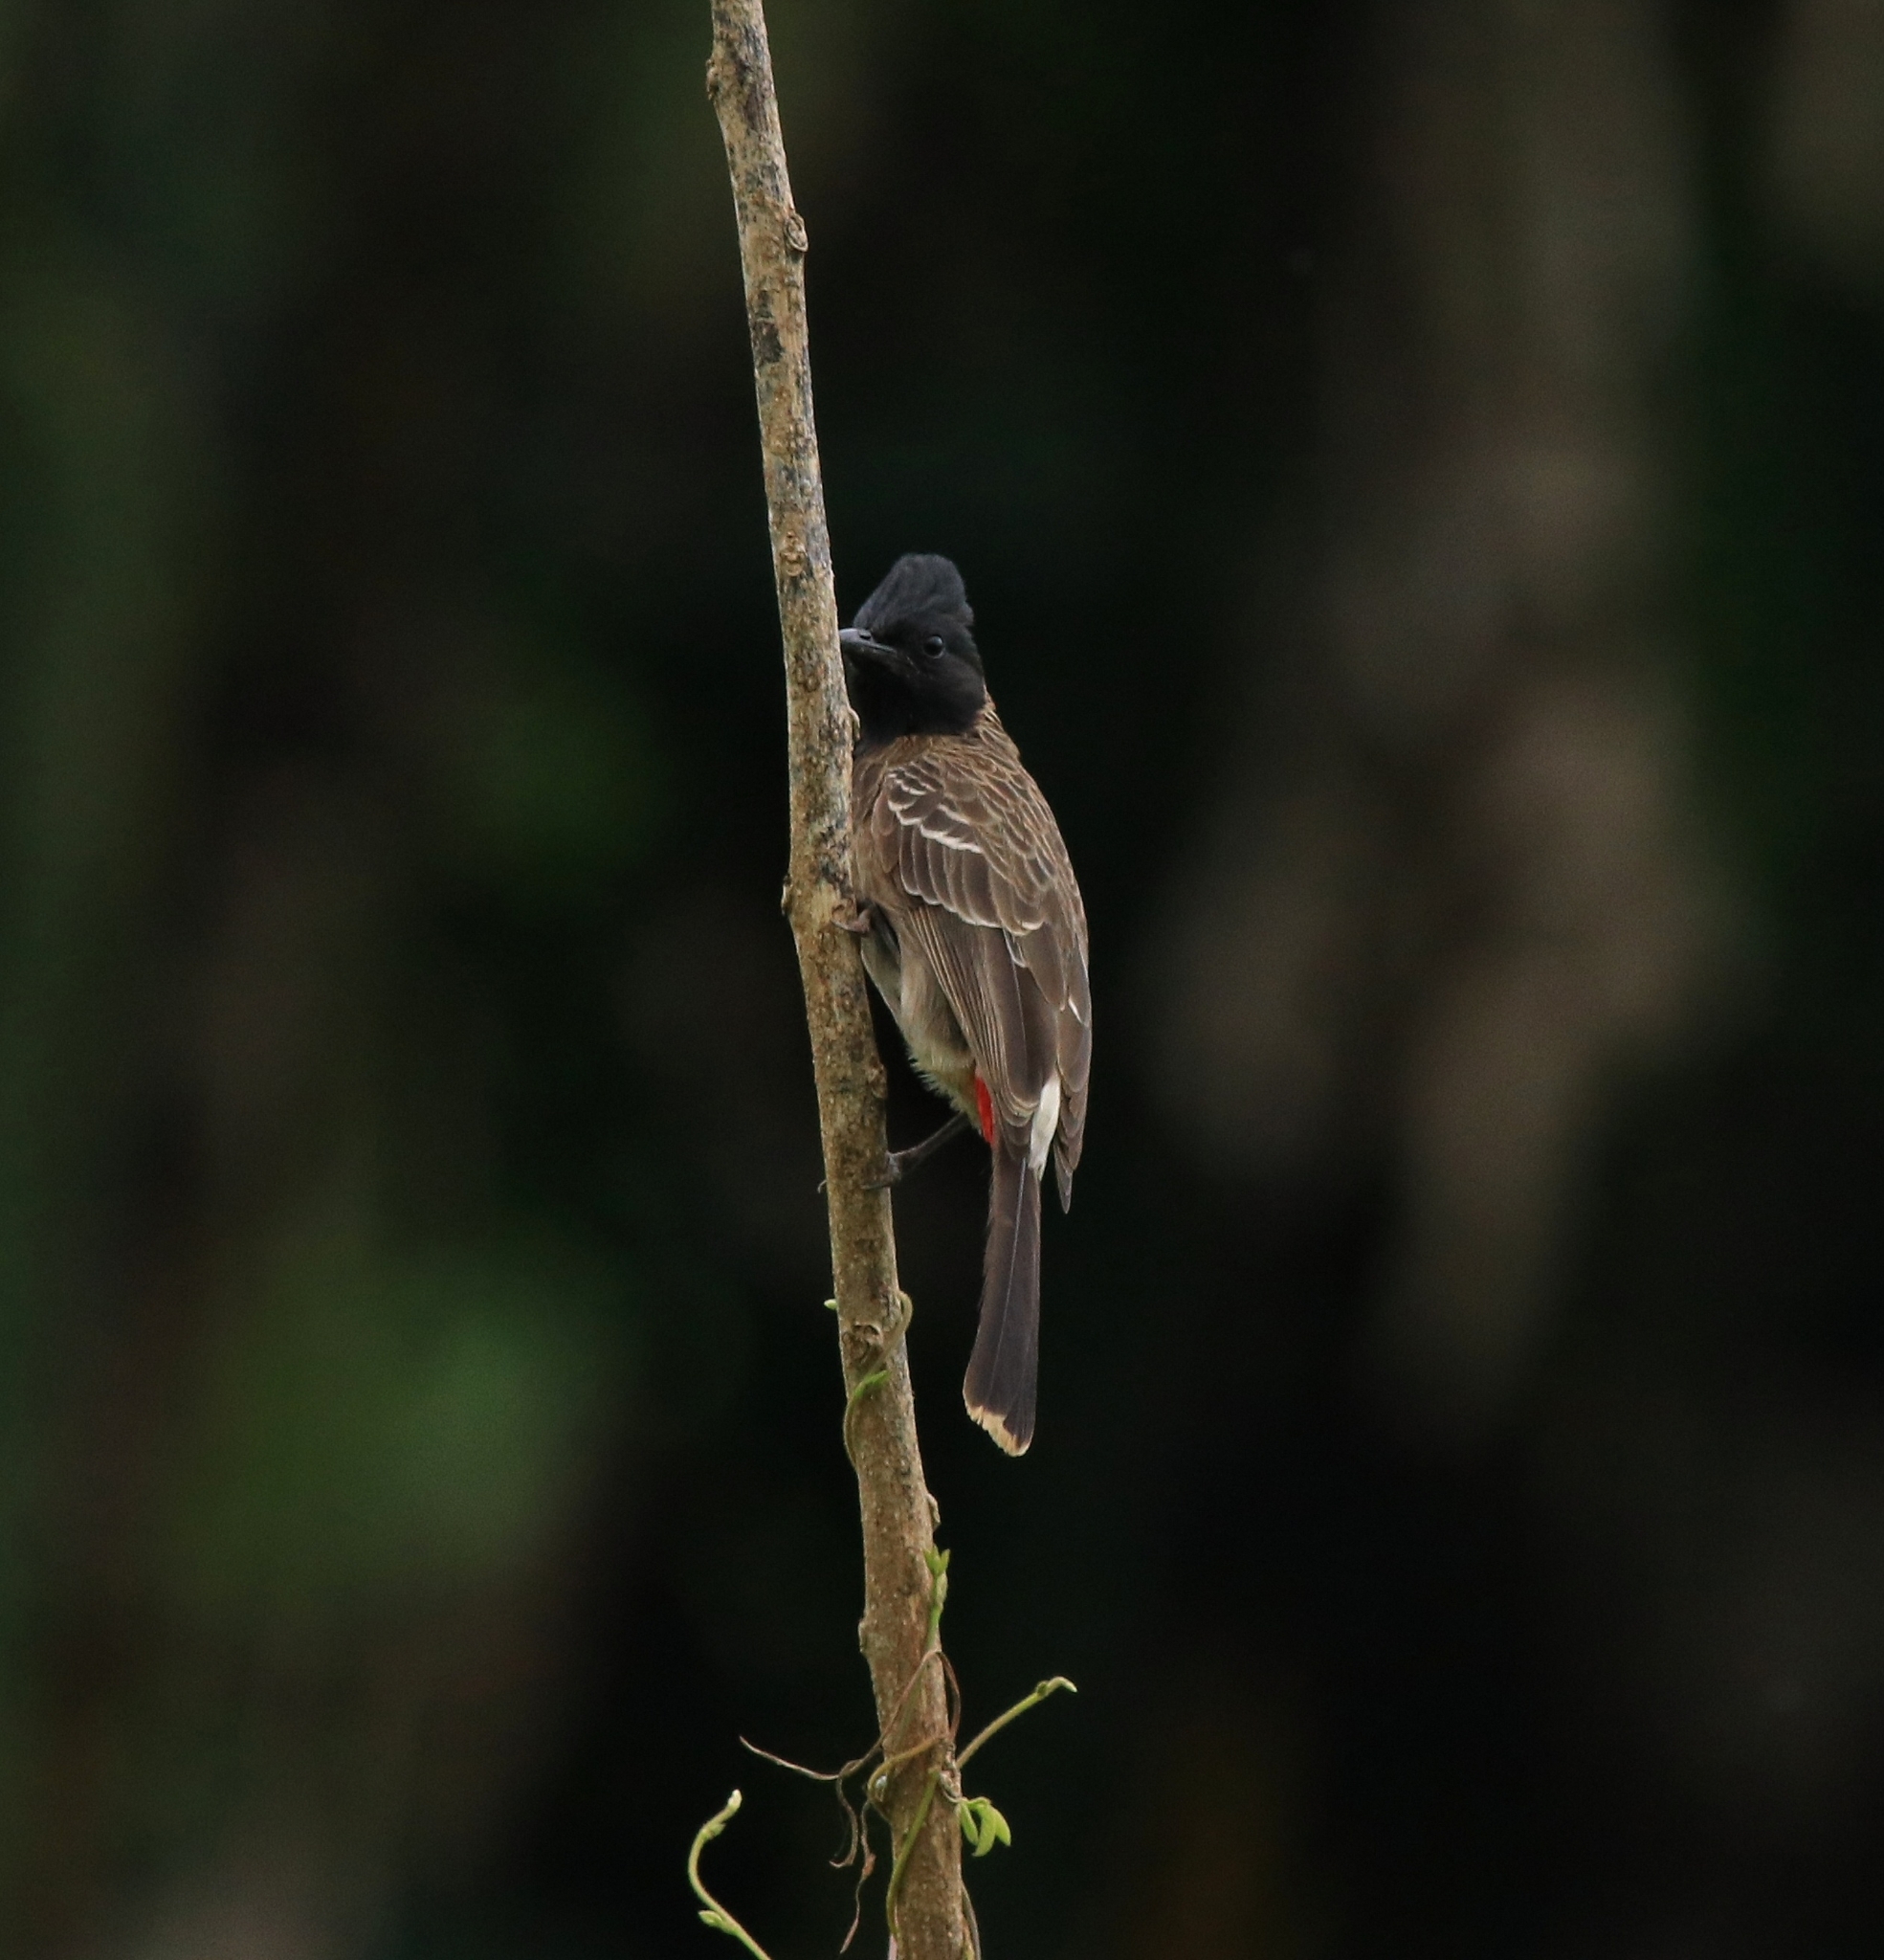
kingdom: Animalia
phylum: Chordata
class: Aves
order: Passeriformes
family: Pycnonotidae
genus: Pycnonotus
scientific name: Pycnonotus cafer
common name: Red-vented bulbul
